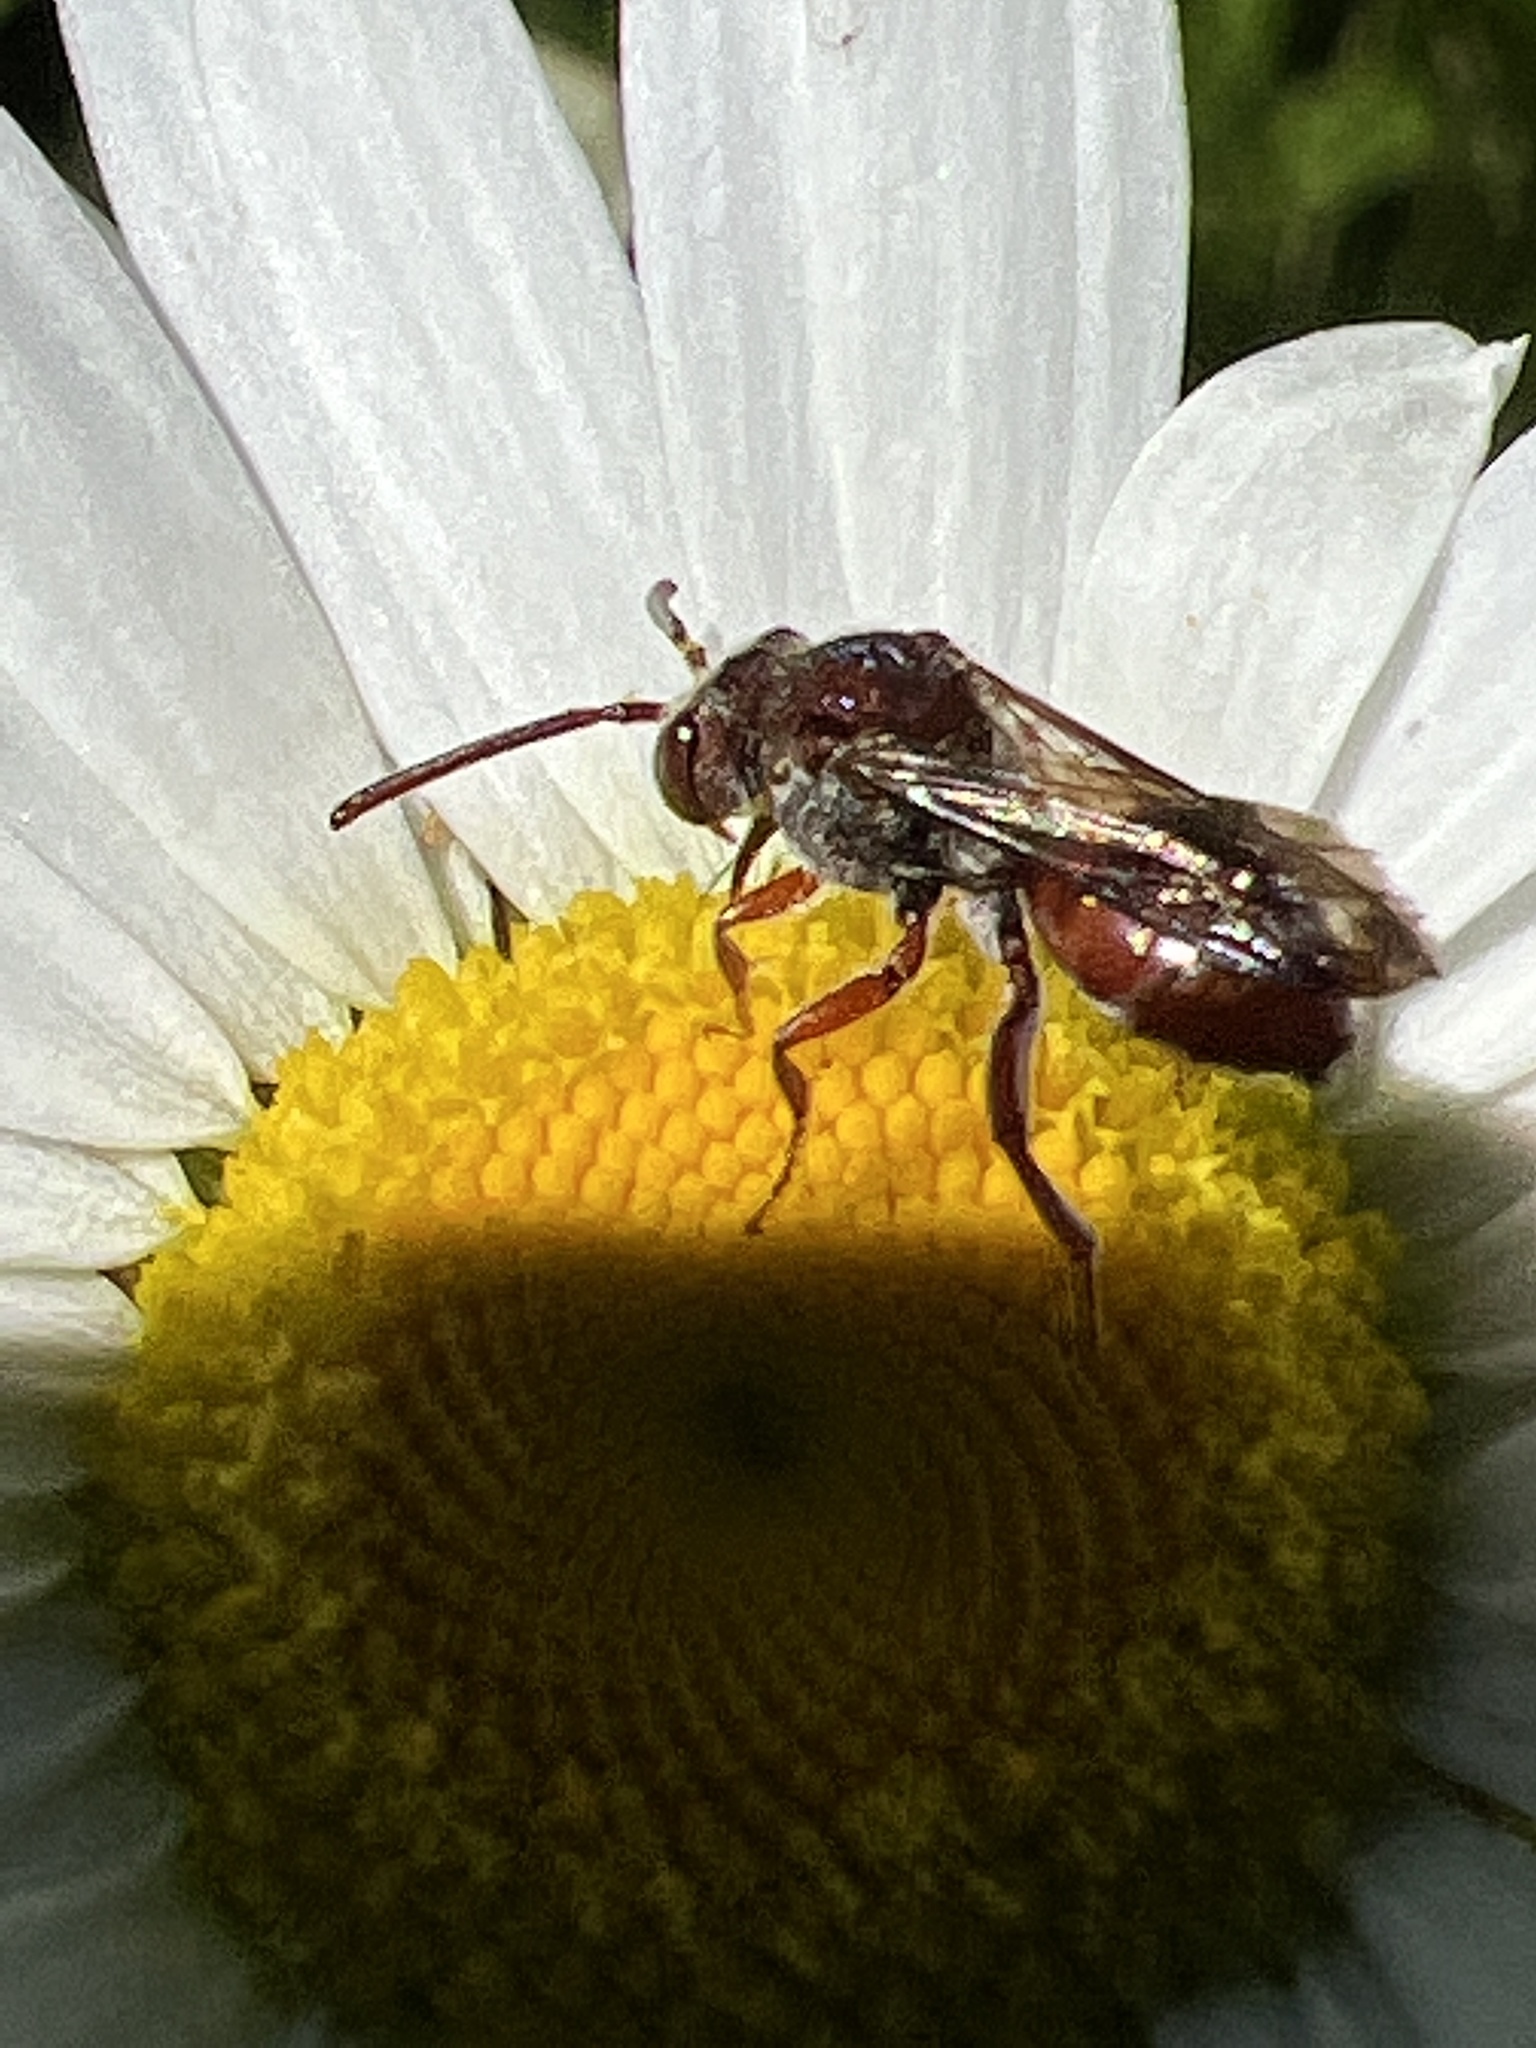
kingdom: Animalia
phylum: Arthropoda
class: Insecta
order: Hymenoptera
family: Apidae
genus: Nomada
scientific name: Nomada
